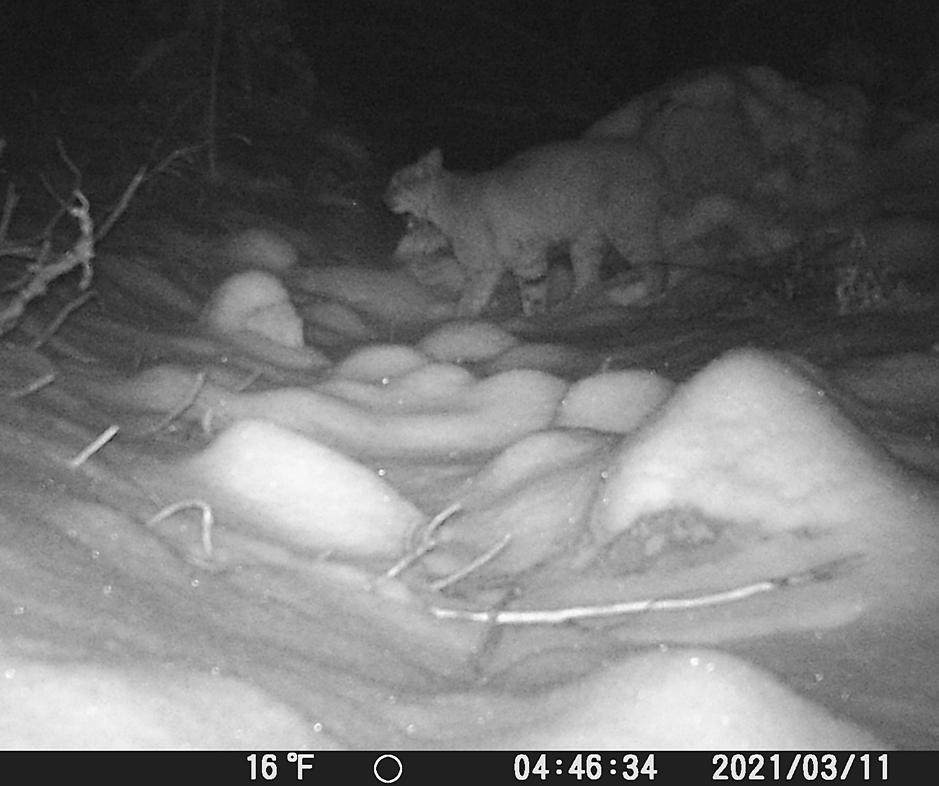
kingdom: Animalia
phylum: Chordata
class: Mammalia
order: Carnivora
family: Felidae
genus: Lynx
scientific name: Lynx rufus
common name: Bobcat
